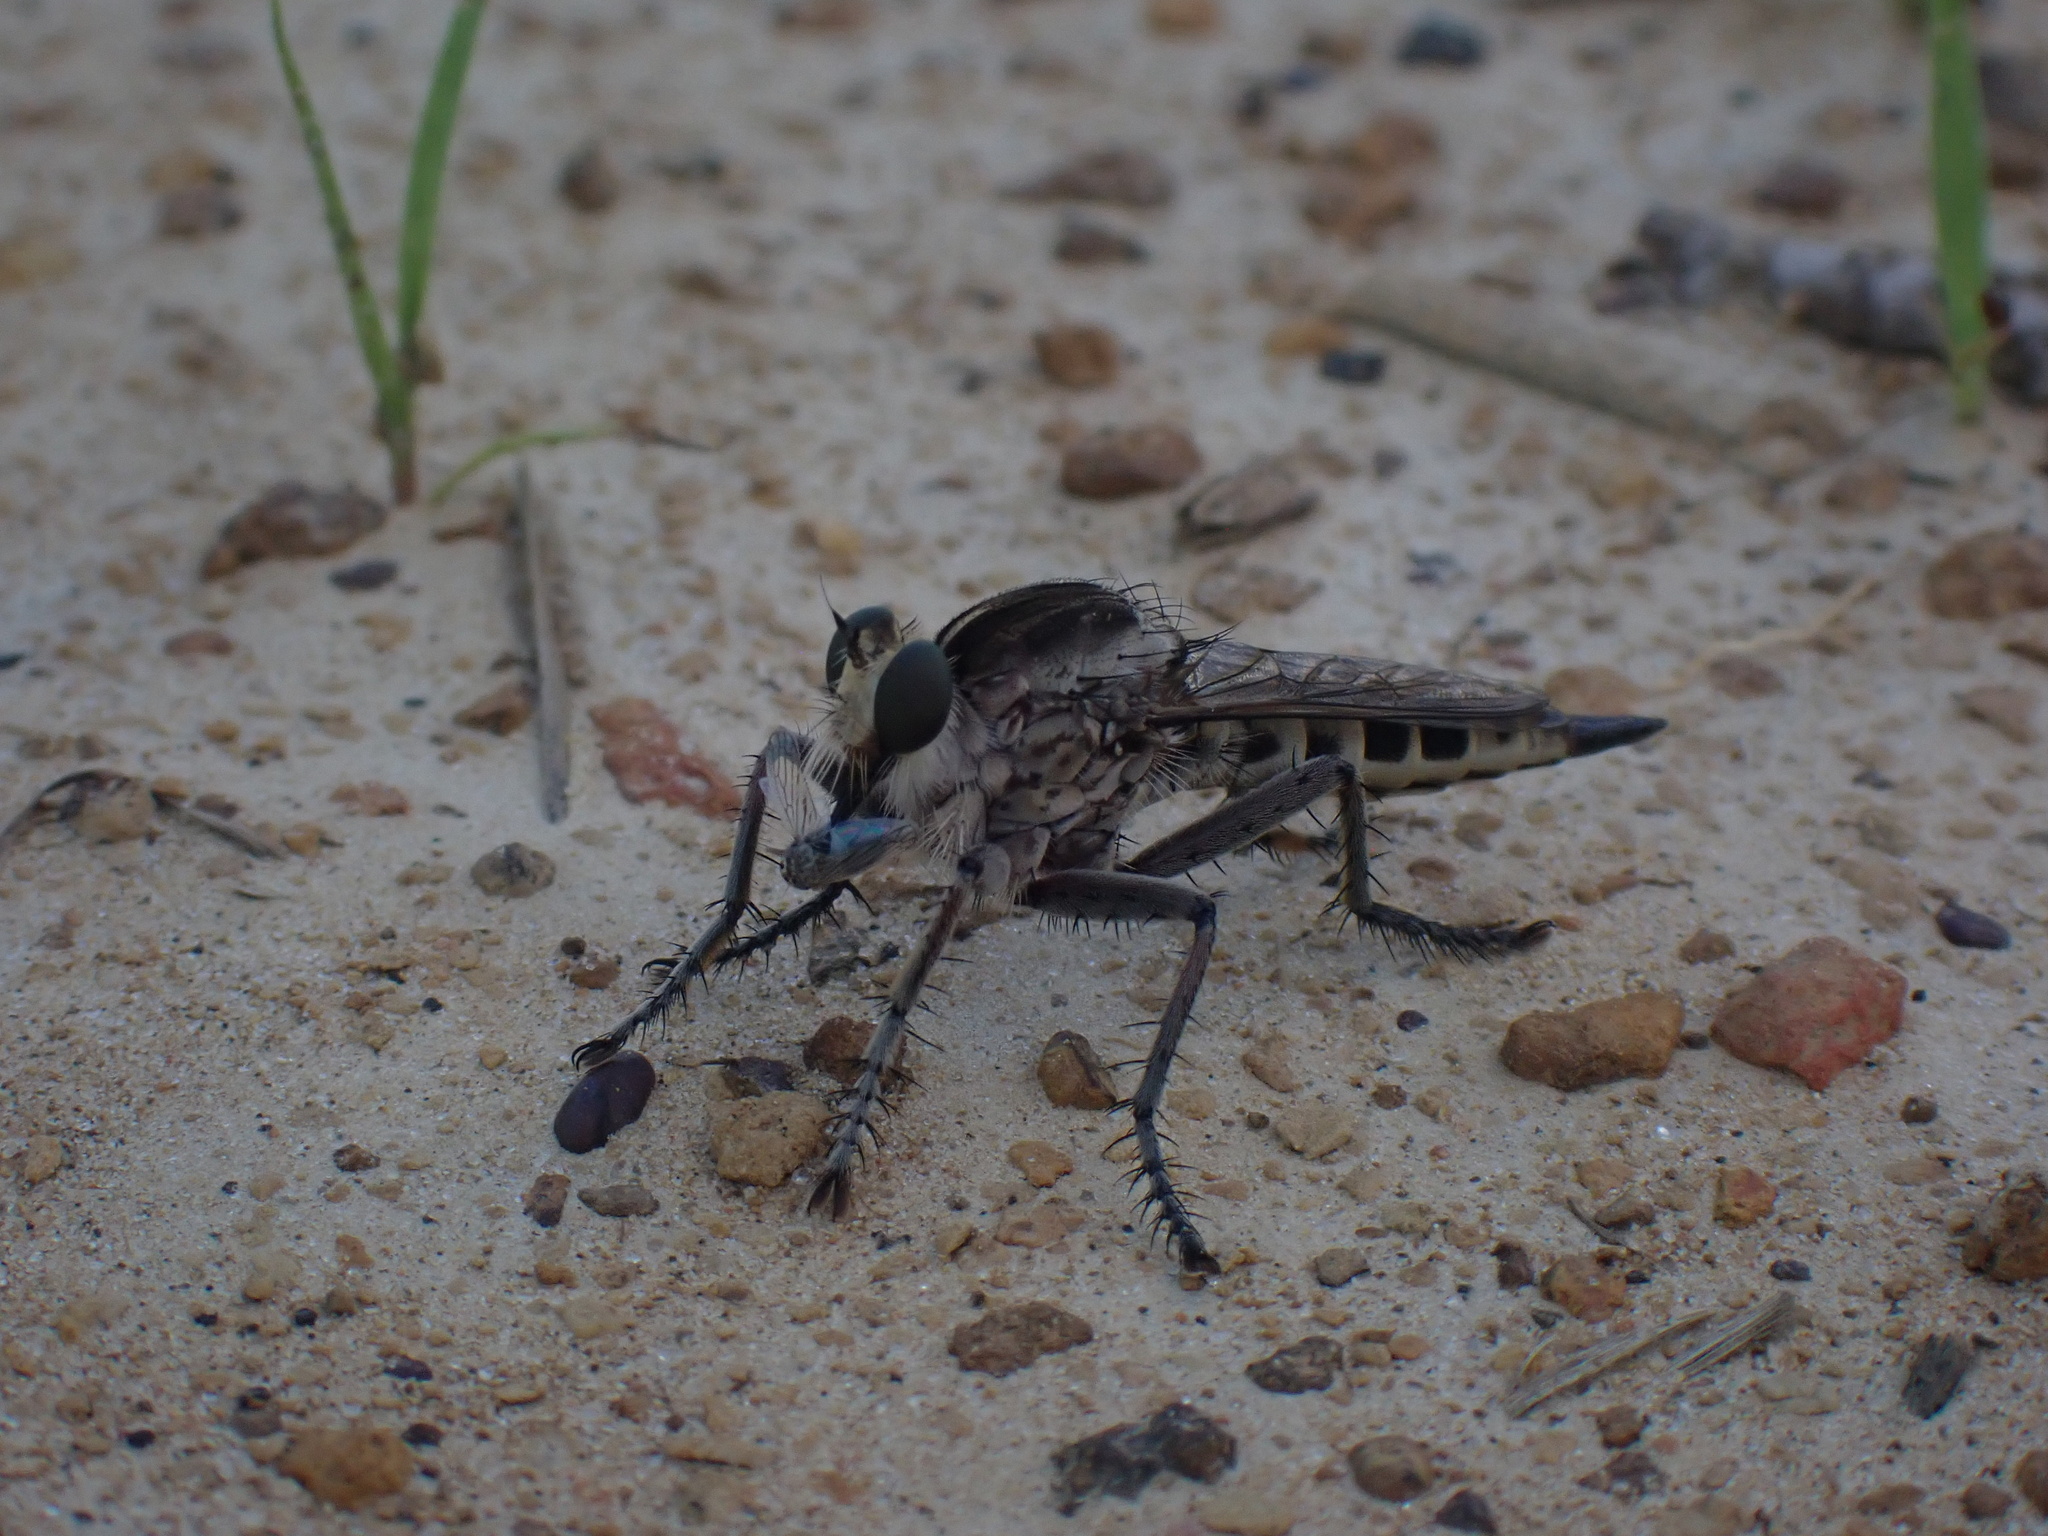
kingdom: Animalia
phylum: Arthropoda
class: Insecta
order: Diptera
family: Asilidae
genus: Triorla
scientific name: Triorla interrupta
